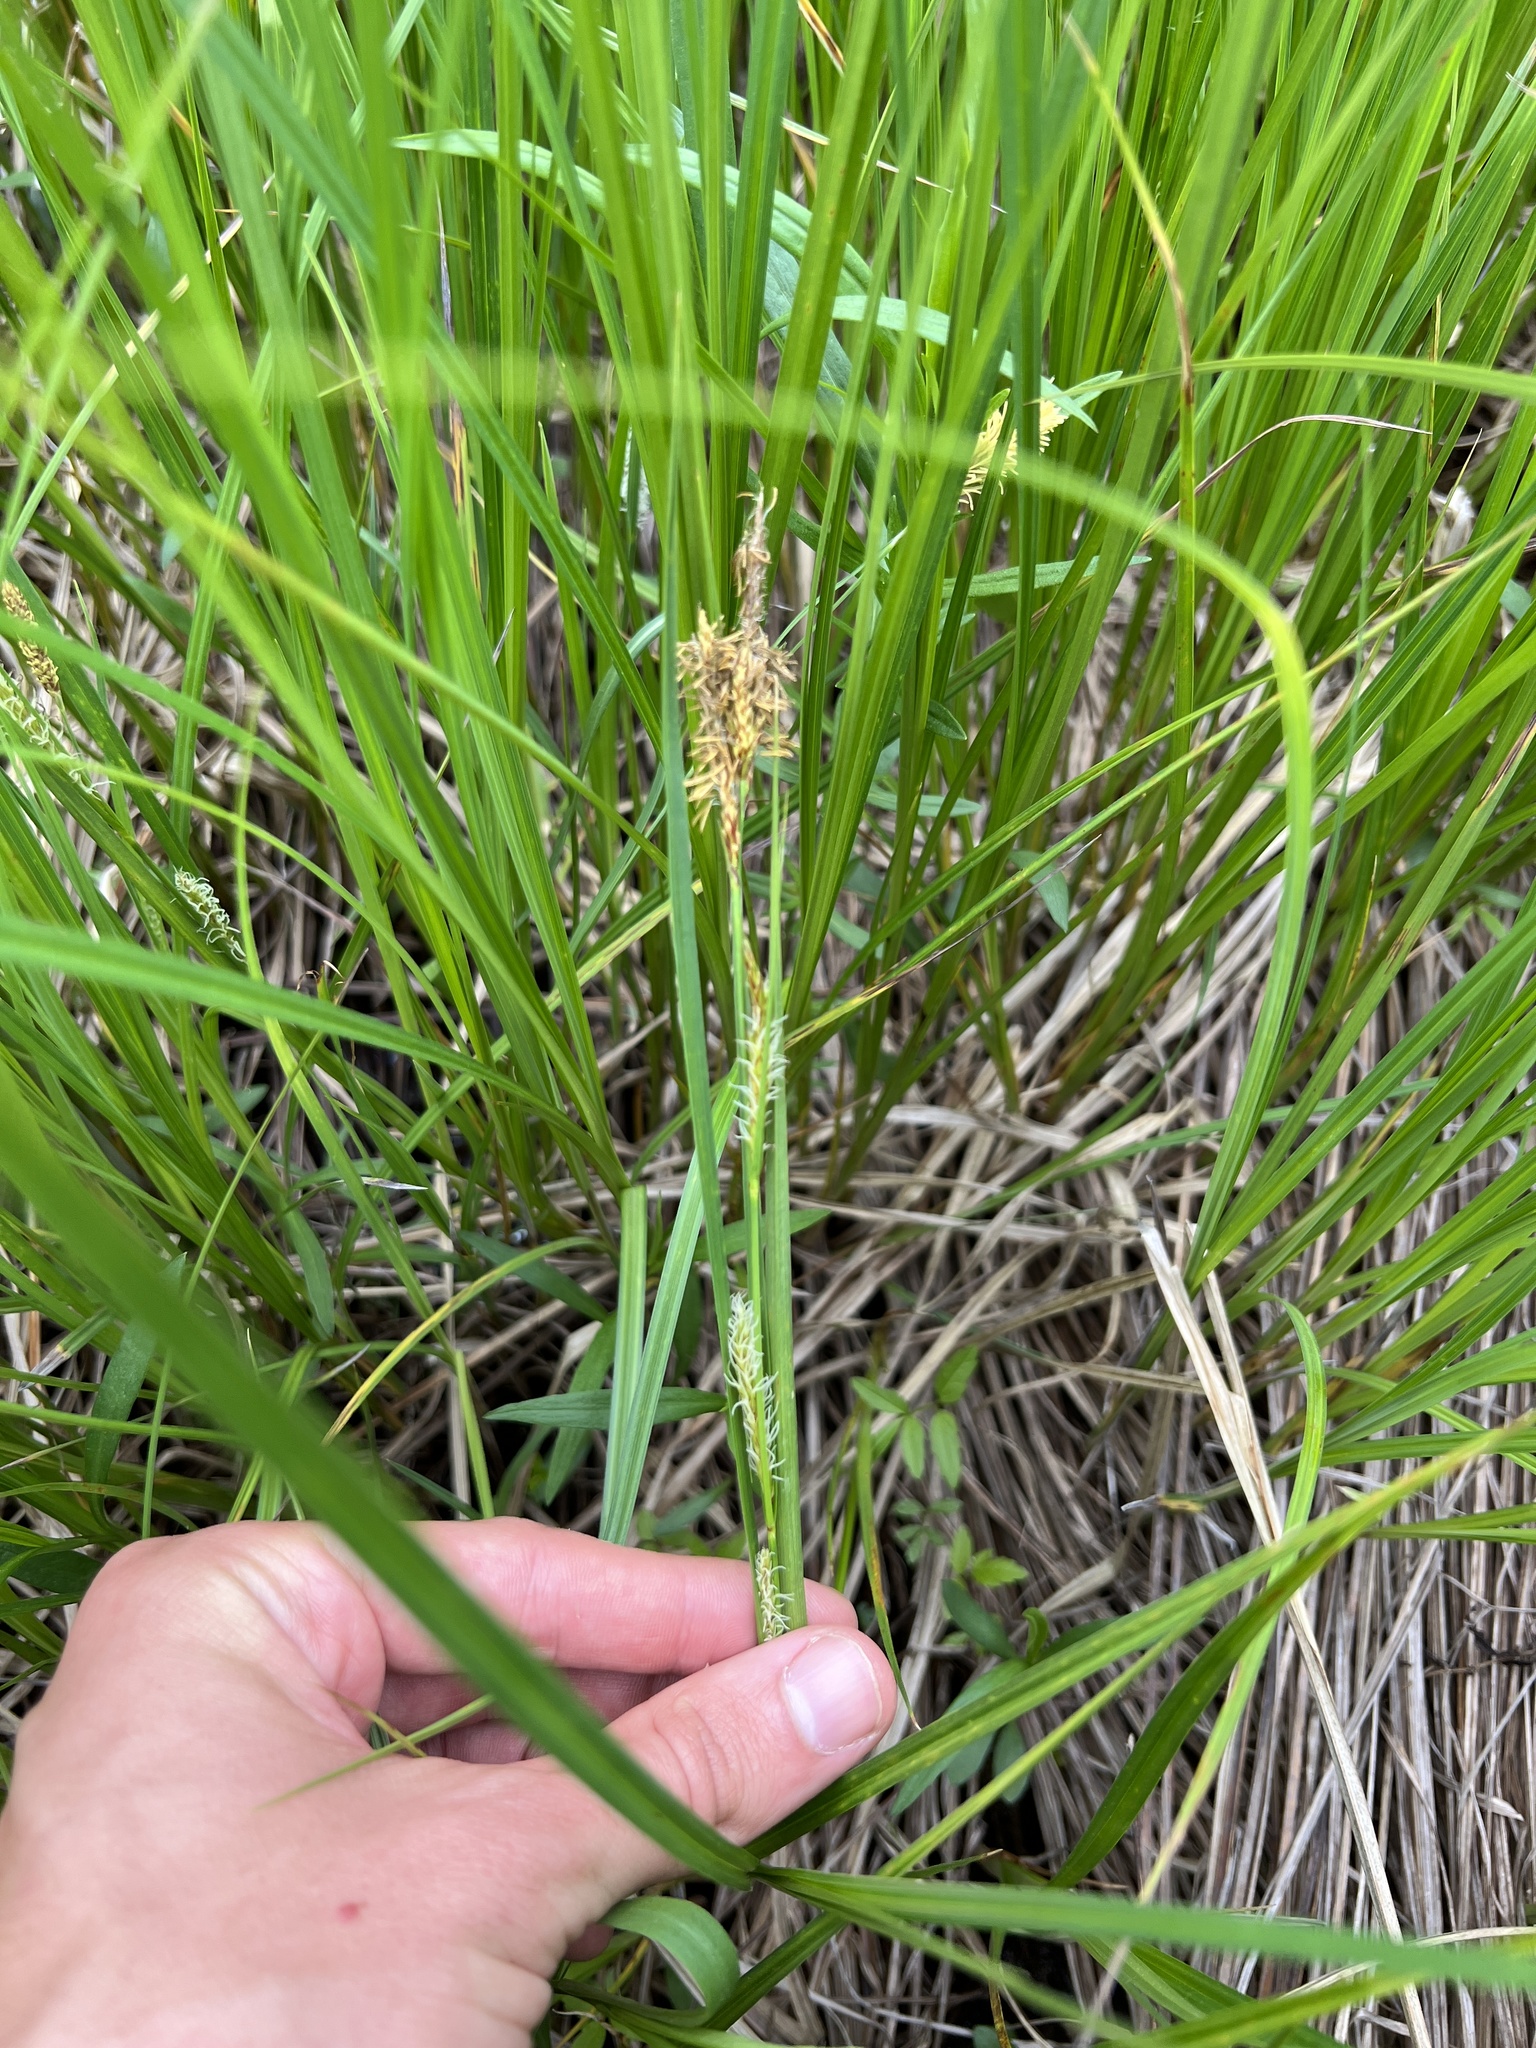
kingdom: Plantae
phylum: Tracheophyta
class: Liliopsida
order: Poales
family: Cyperaceae
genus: Carex
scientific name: Carex trichocarpa
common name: Hairy-fruited lake sedge
